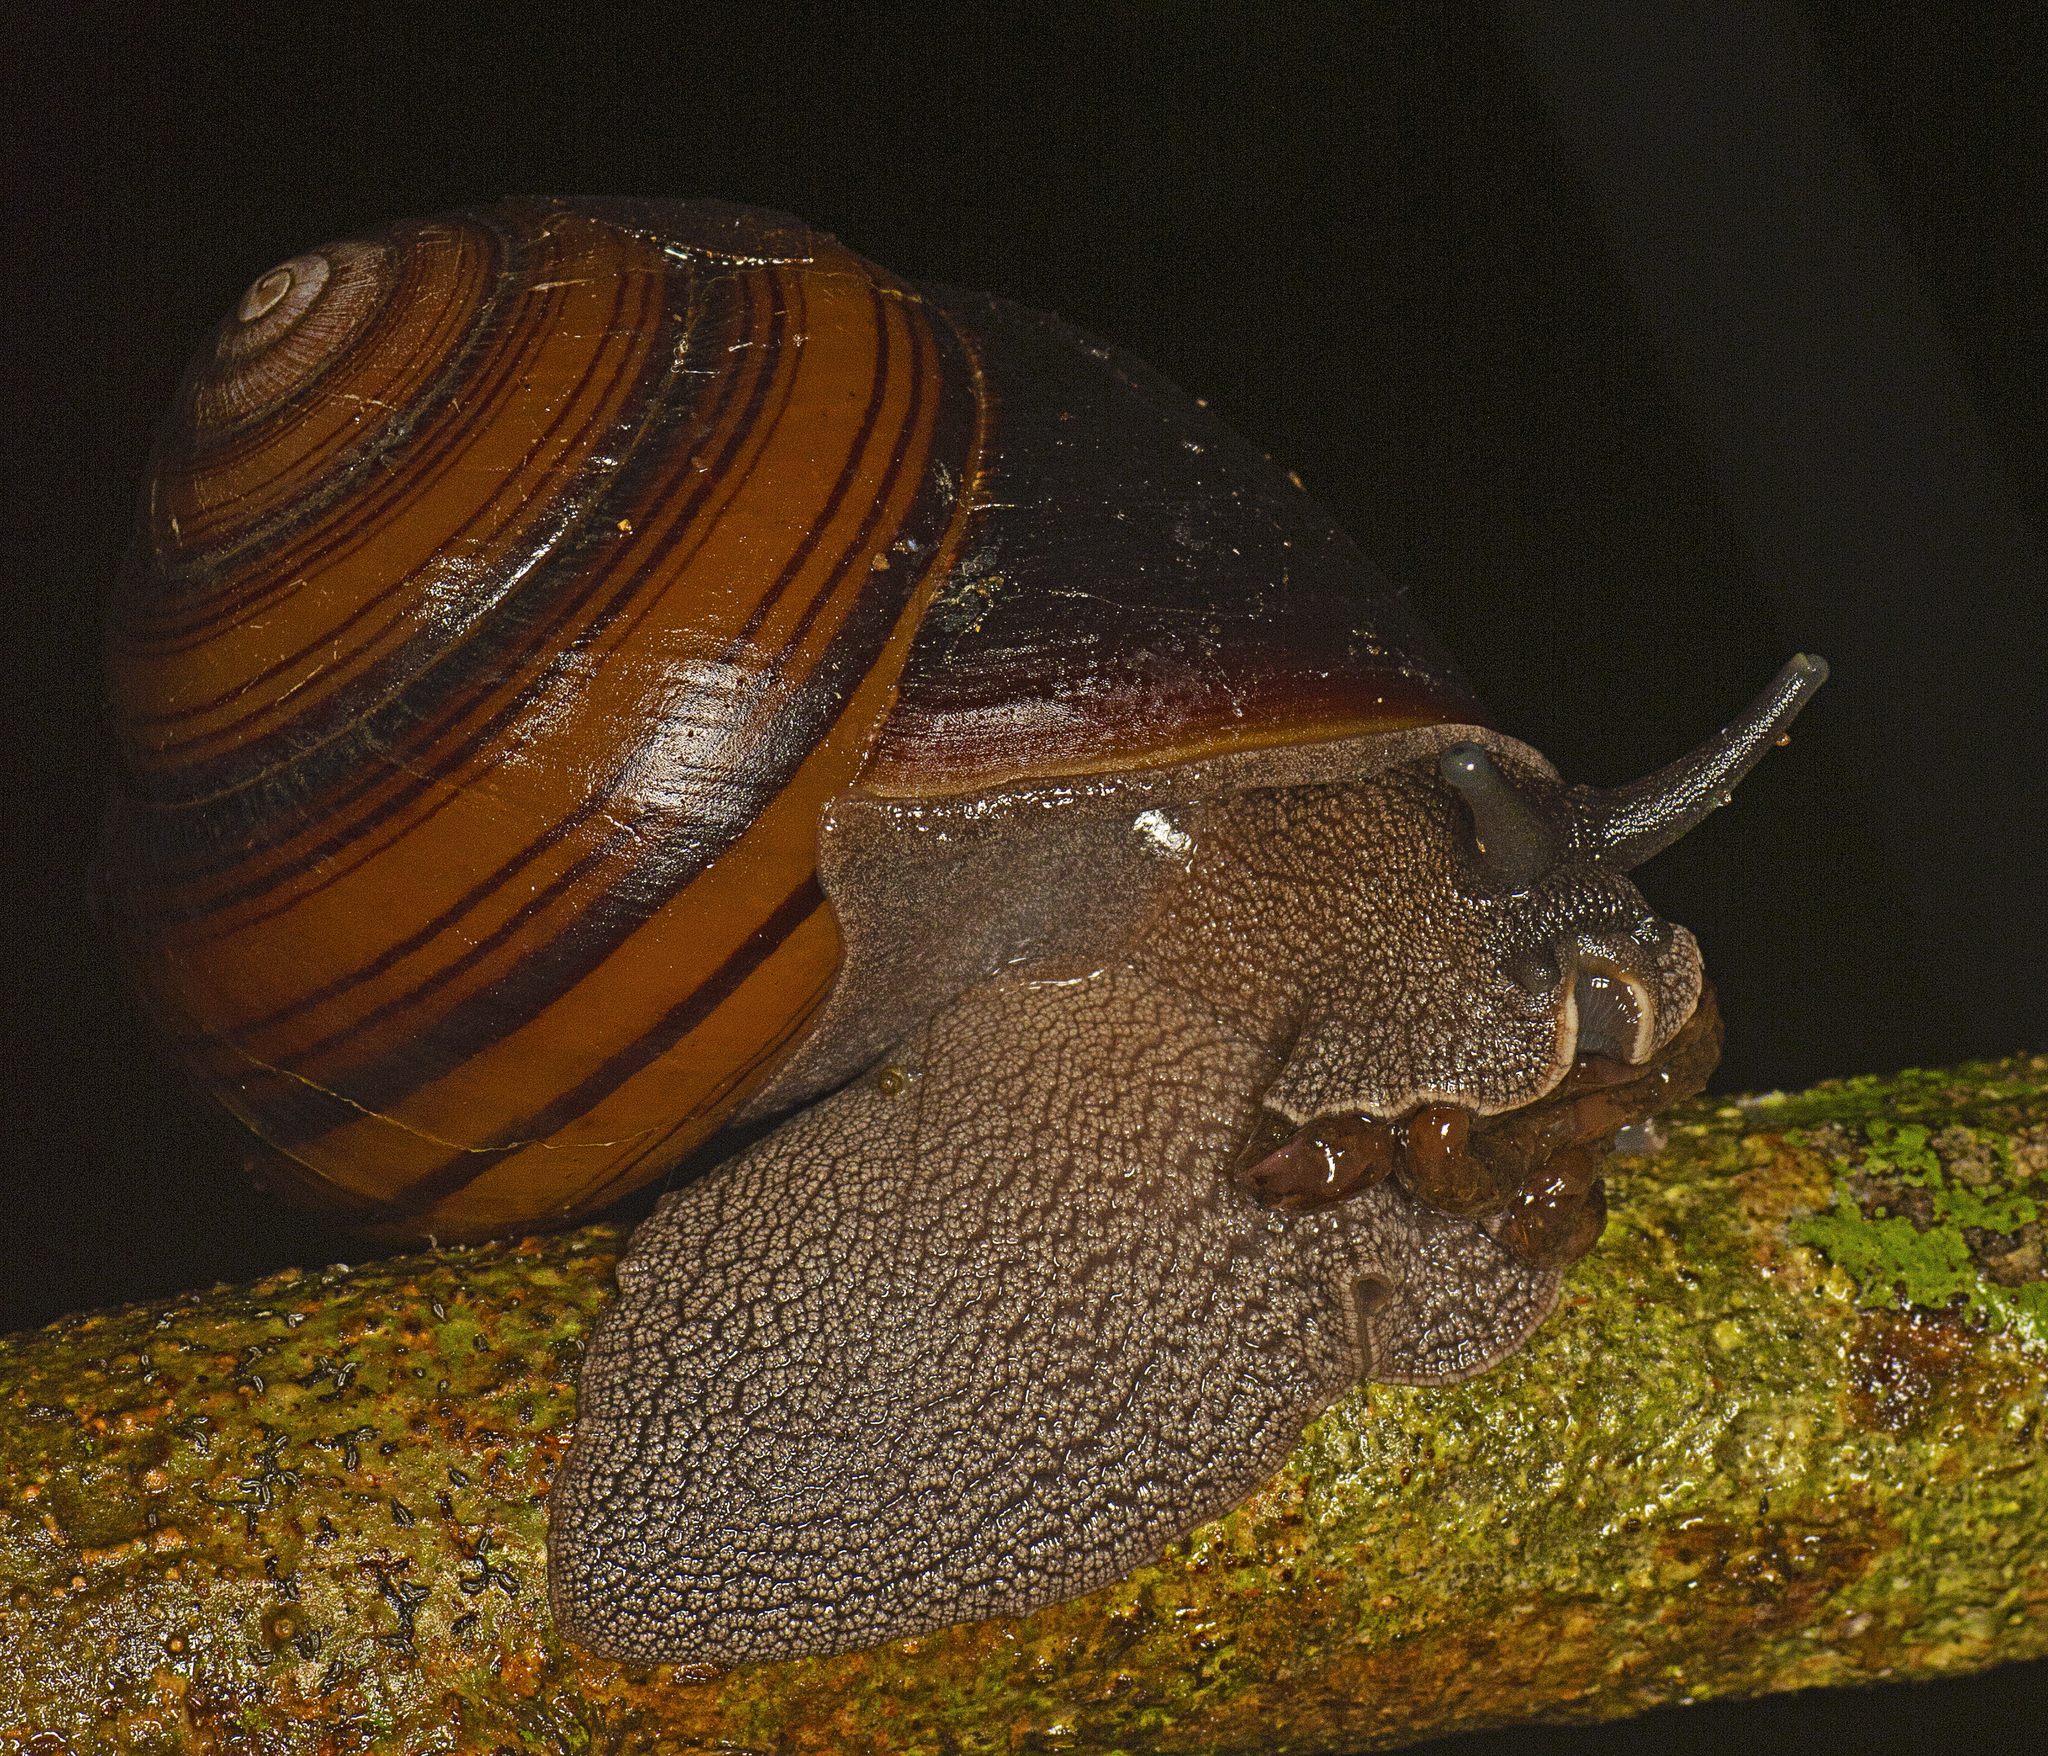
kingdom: Animalia
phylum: Mollusca
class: Gastropoda
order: Stylommatophora
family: Camaenidae
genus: Sphaerospira
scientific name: Sphaerospira fraseri
